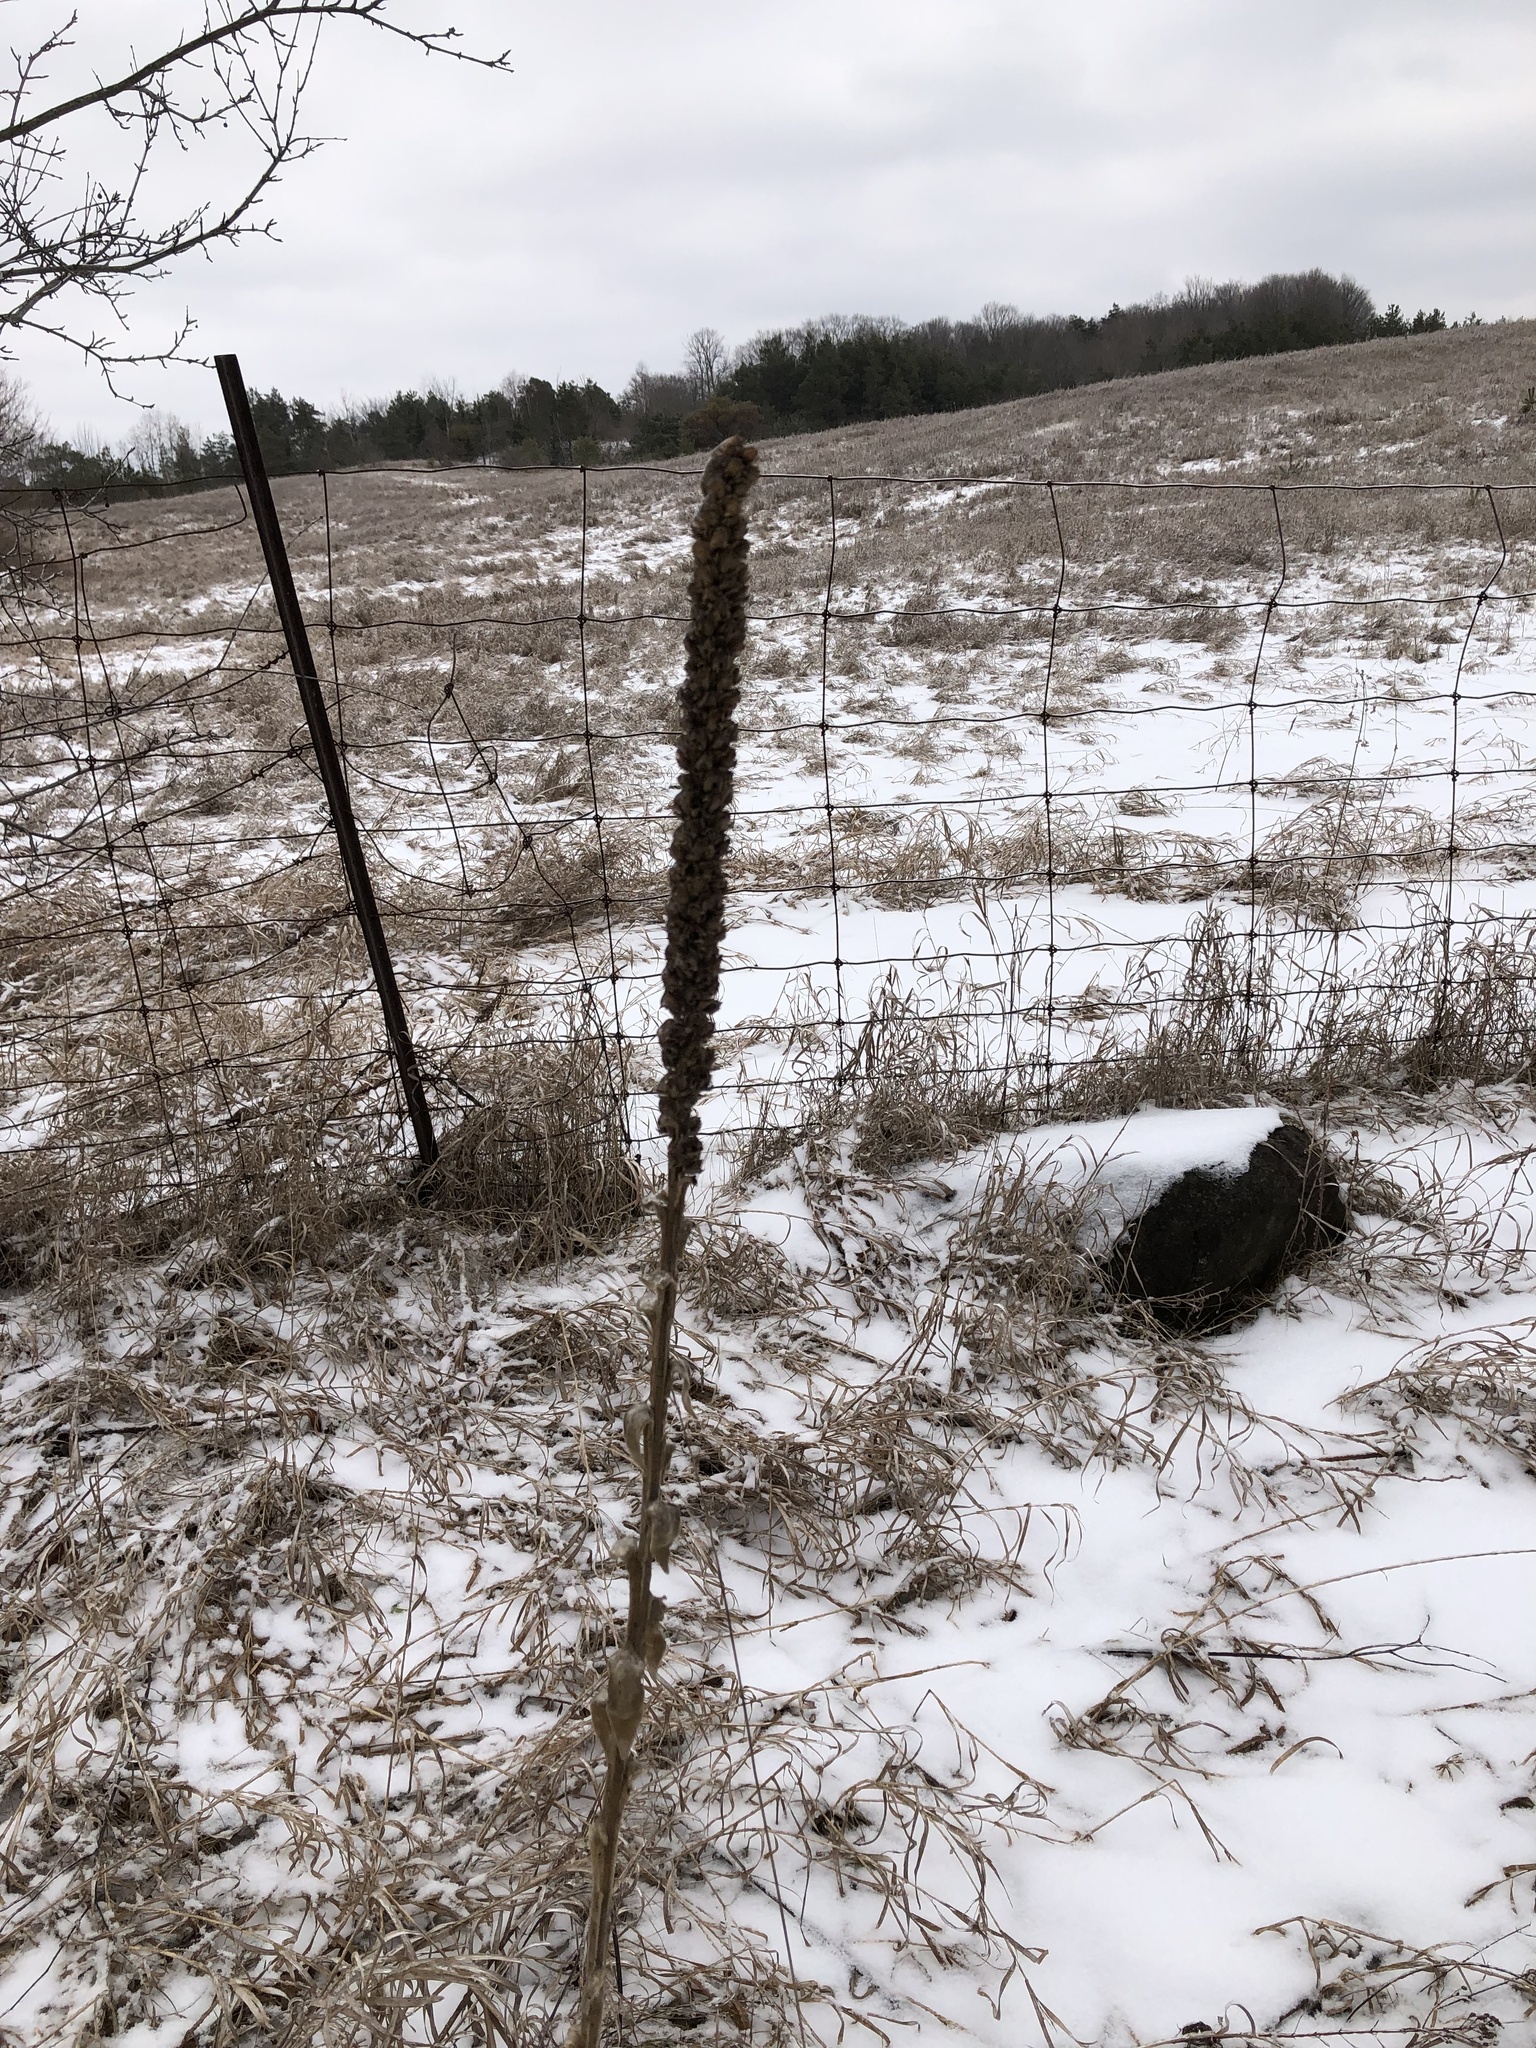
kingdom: Plantae
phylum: Tracheophyta
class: Magnoliopsida
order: Lamiales
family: Scrophulariaceae
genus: Verbascum
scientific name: Verbascum thapsus
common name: Common mullein
